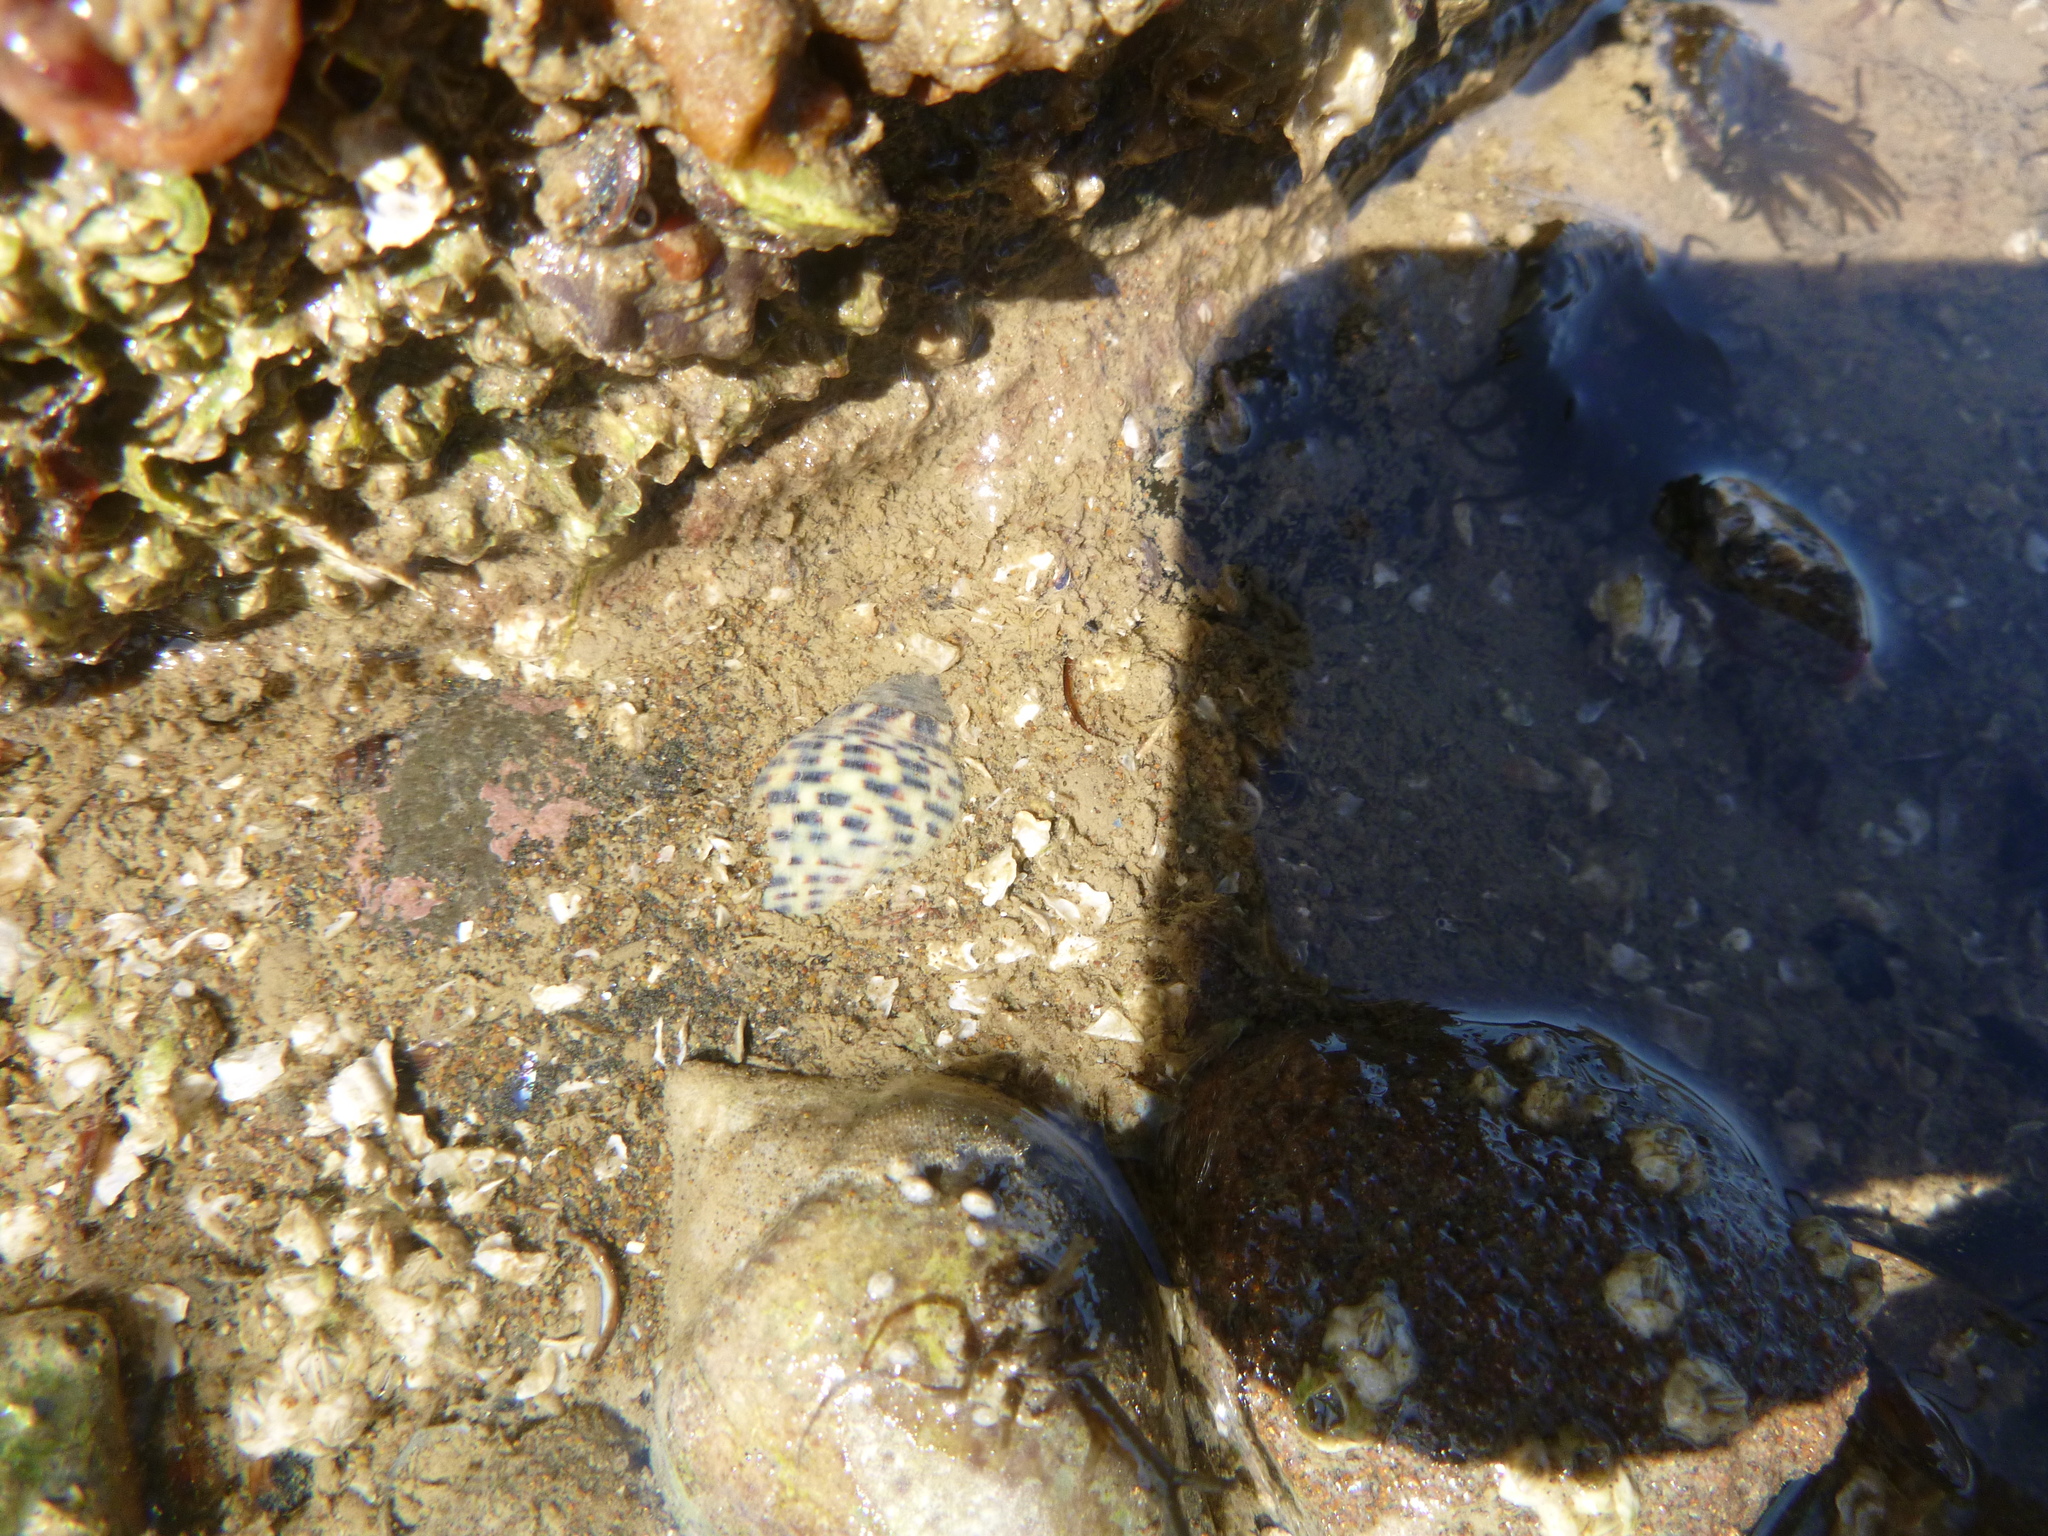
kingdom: Animalia
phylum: Mollusca
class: Gastropoda
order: Neogastropoda
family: Cominellidae
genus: Cominella
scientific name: Cominella maculosa
